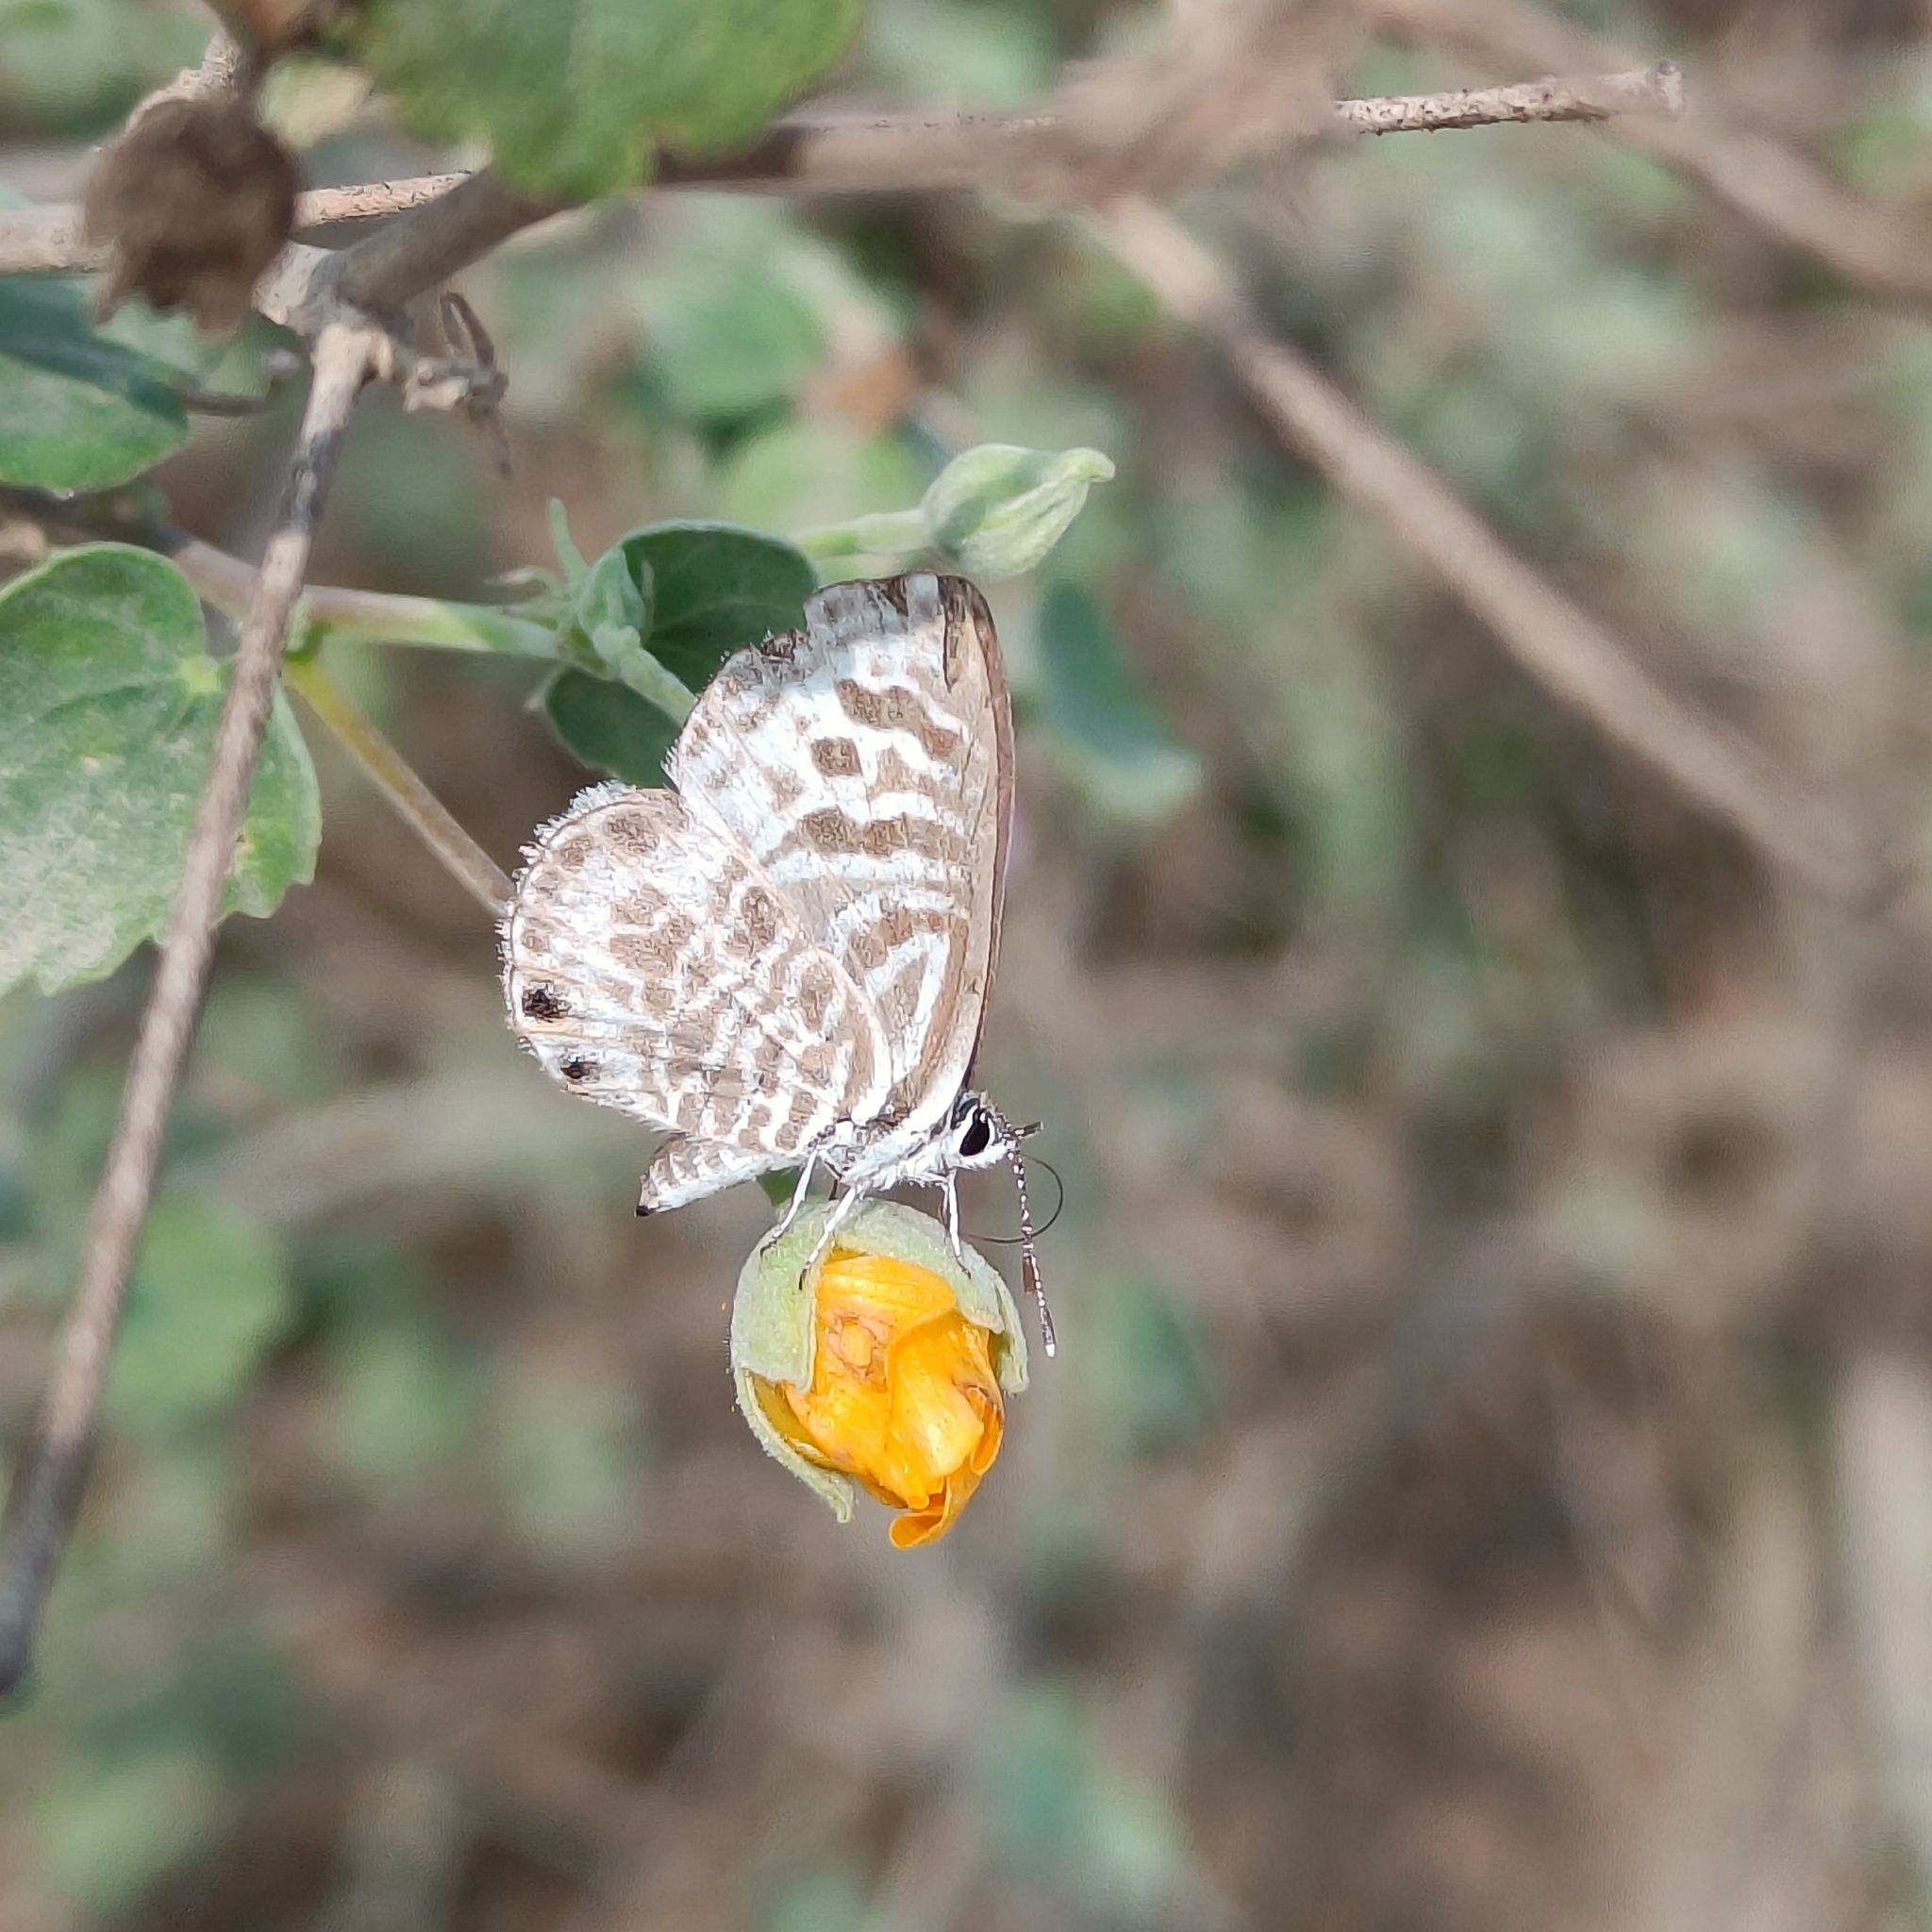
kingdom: Animalia
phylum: Arthropoda
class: Insecta
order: Lepidoptera
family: Lycaenidae
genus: Leptotes
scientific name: Leptotes plinius
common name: Zebra blue
